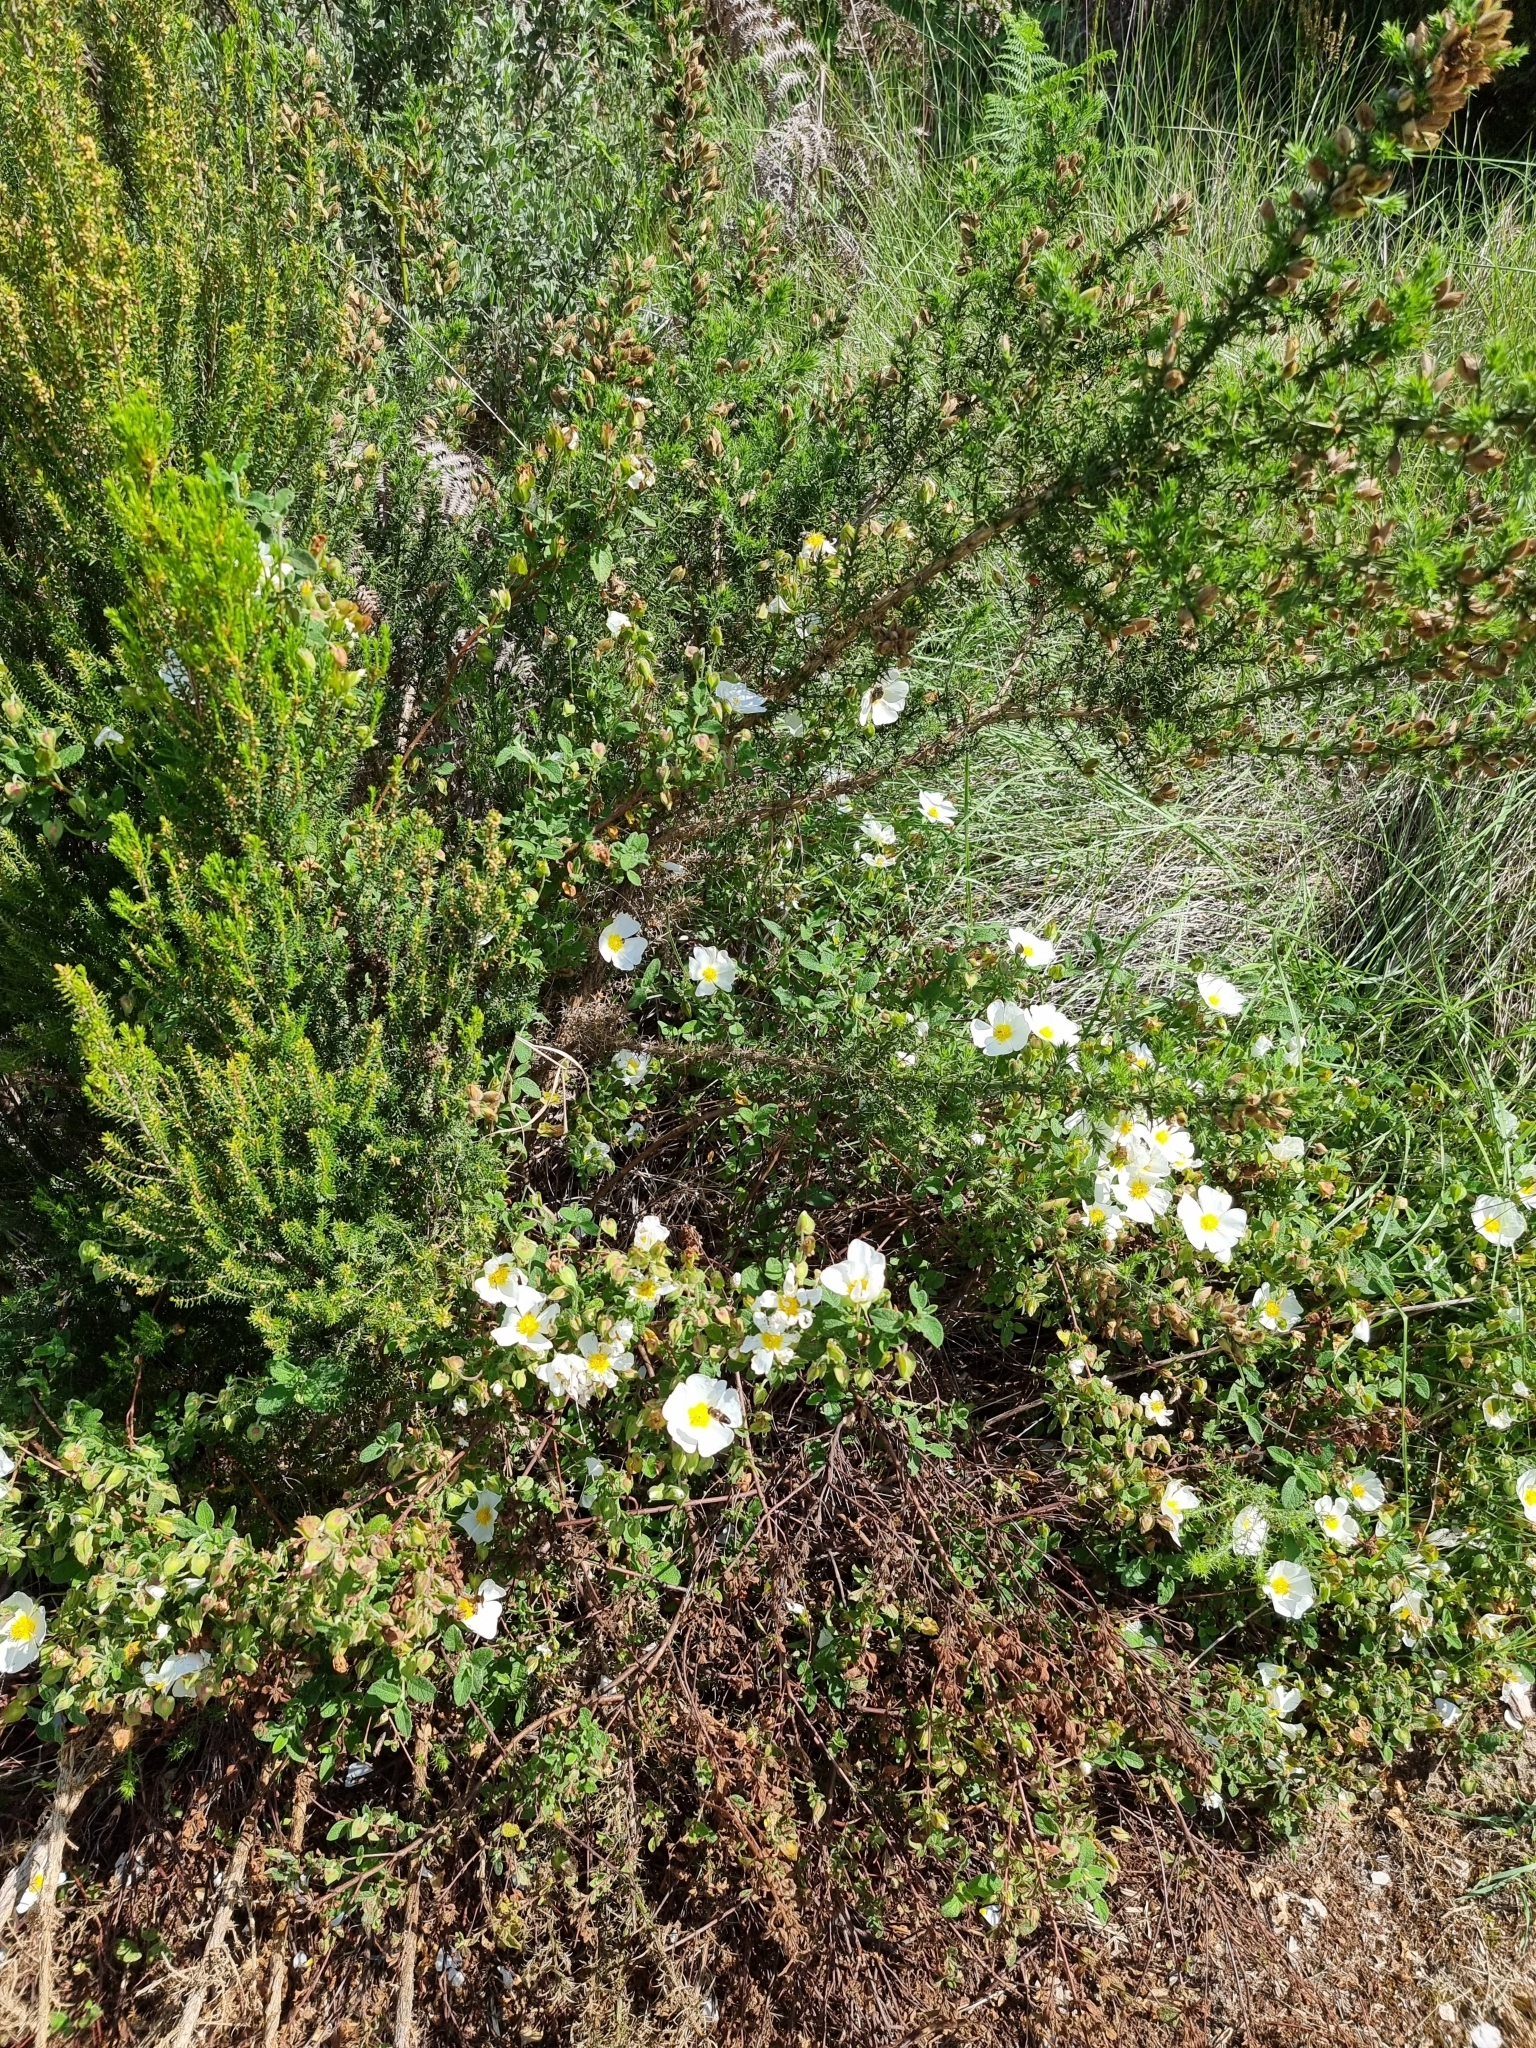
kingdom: Plantae
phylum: Tracheophyta
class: Magnoliopsida
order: Malvales
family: Cistaceae
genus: Cistus
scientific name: Cistus salviifolius
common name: Salvia cistus
